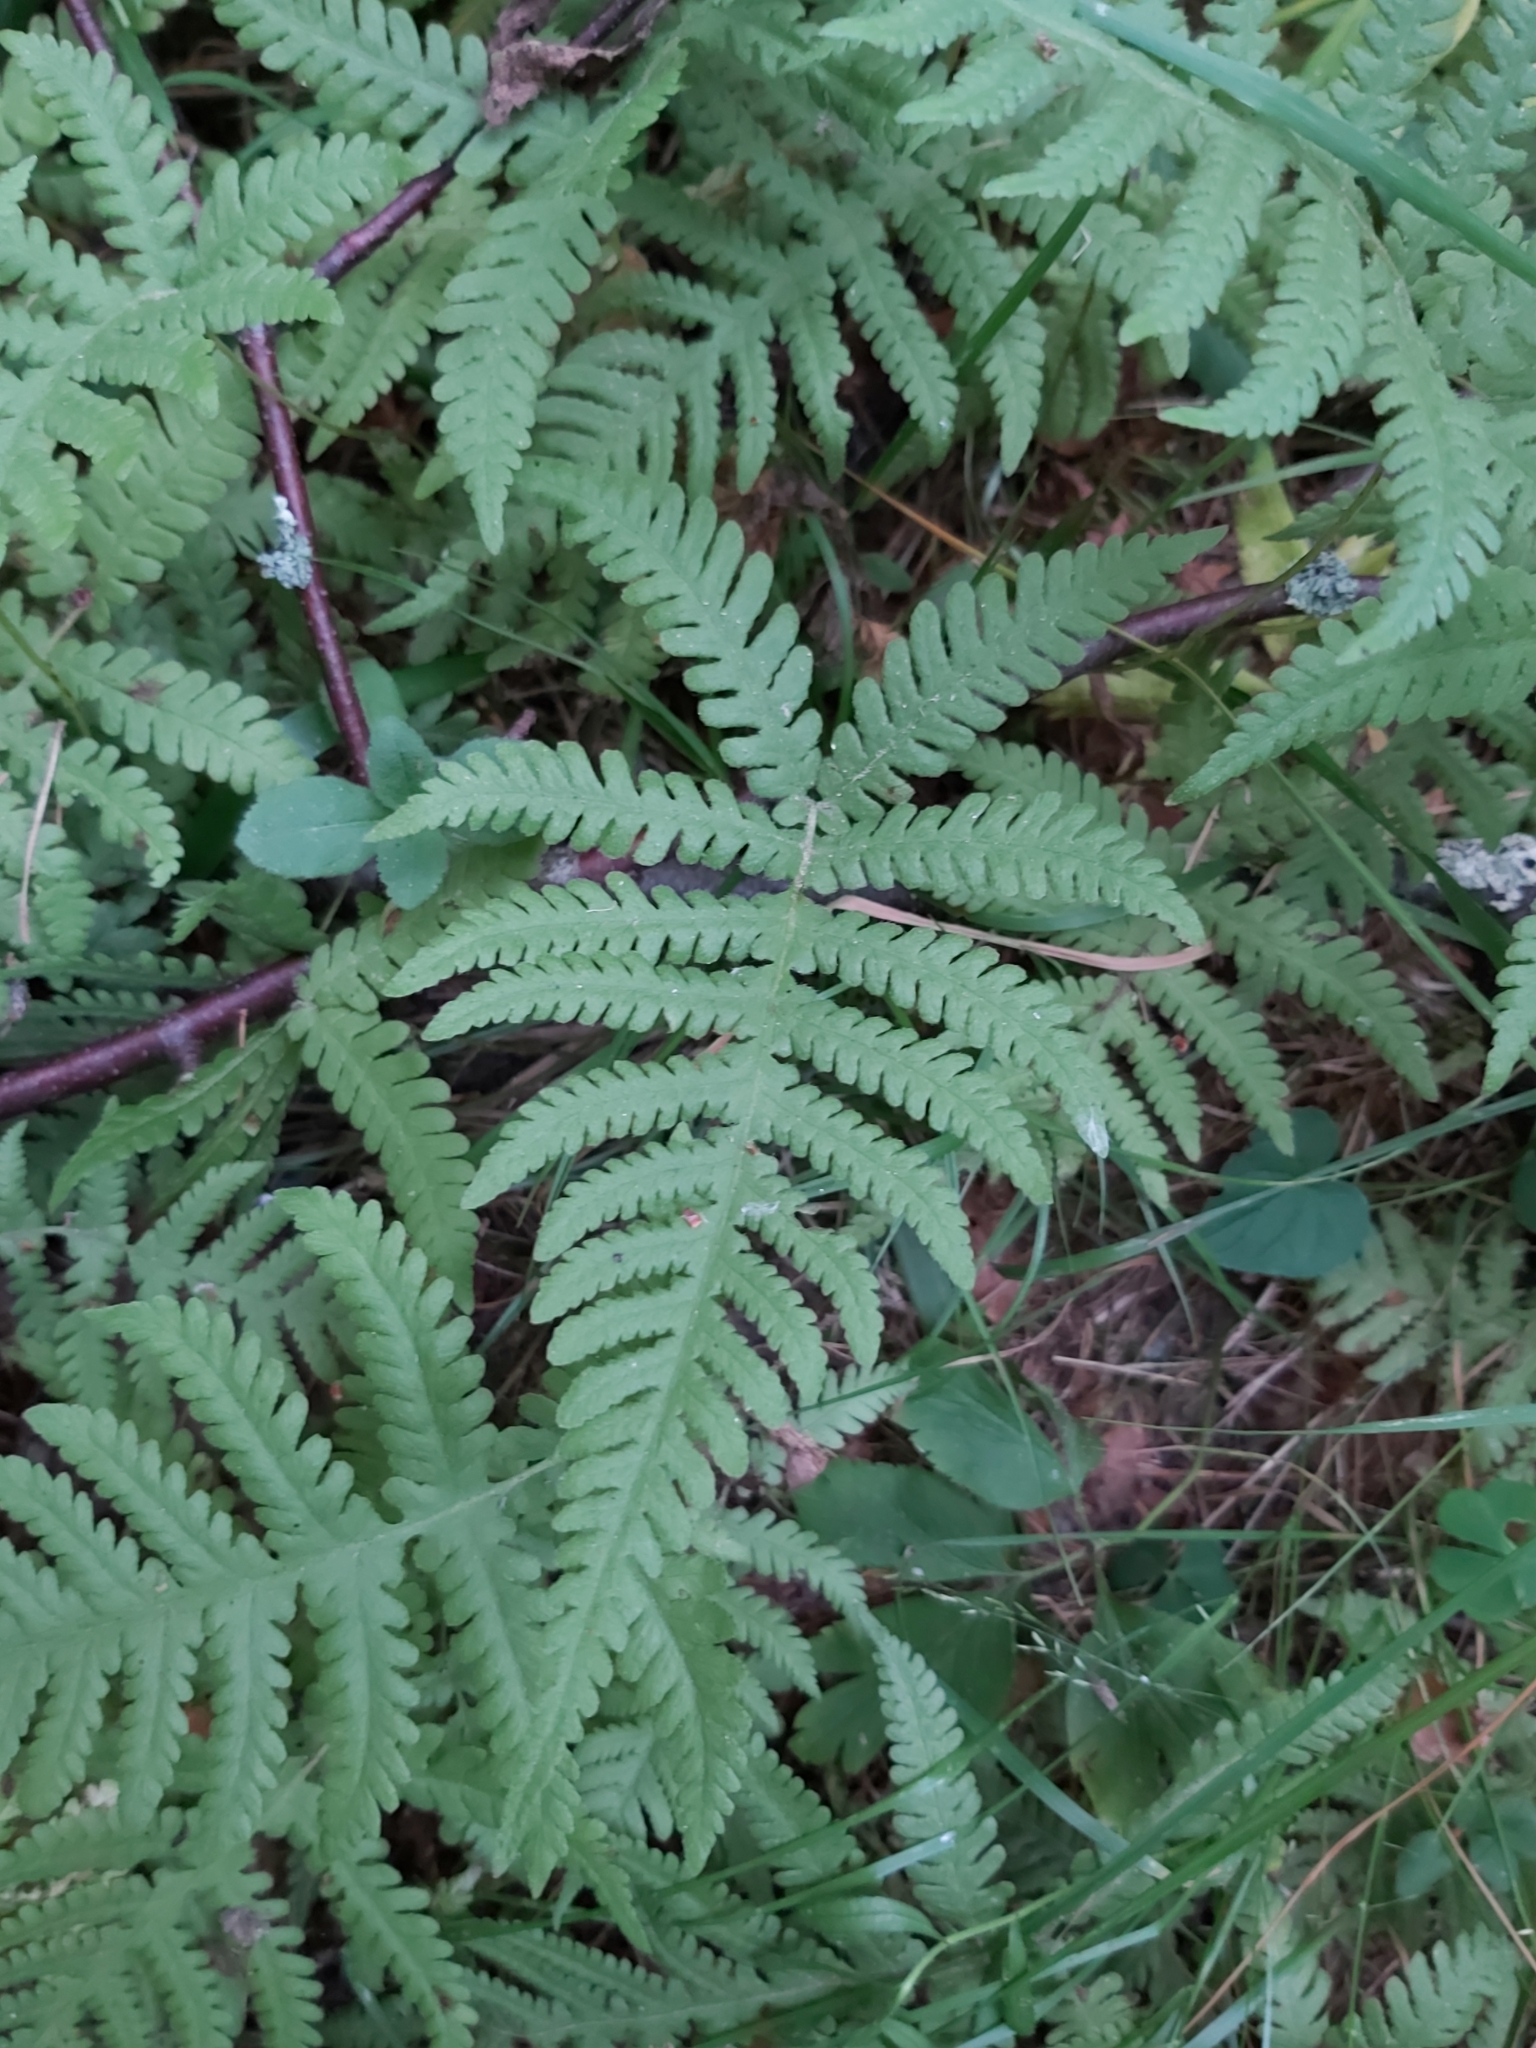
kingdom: Plantae
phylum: Tracheophyta
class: Polypodiopsida
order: Polypodiales
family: Thelypteridaceae
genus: Phegopteris
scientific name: Phegopteris connectilis
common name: Beech fern
